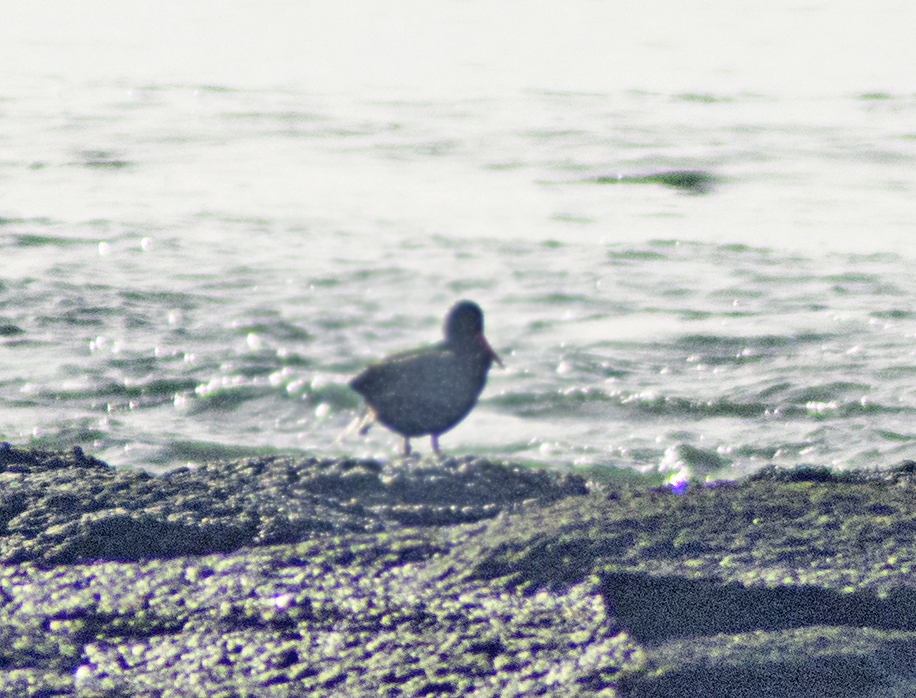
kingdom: Animalia
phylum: Chordata
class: Aves
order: Charadriiformes
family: Haematopodidae
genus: Haematopus
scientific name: Haematopus fuliginosus
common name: Sooty oystercatcher
